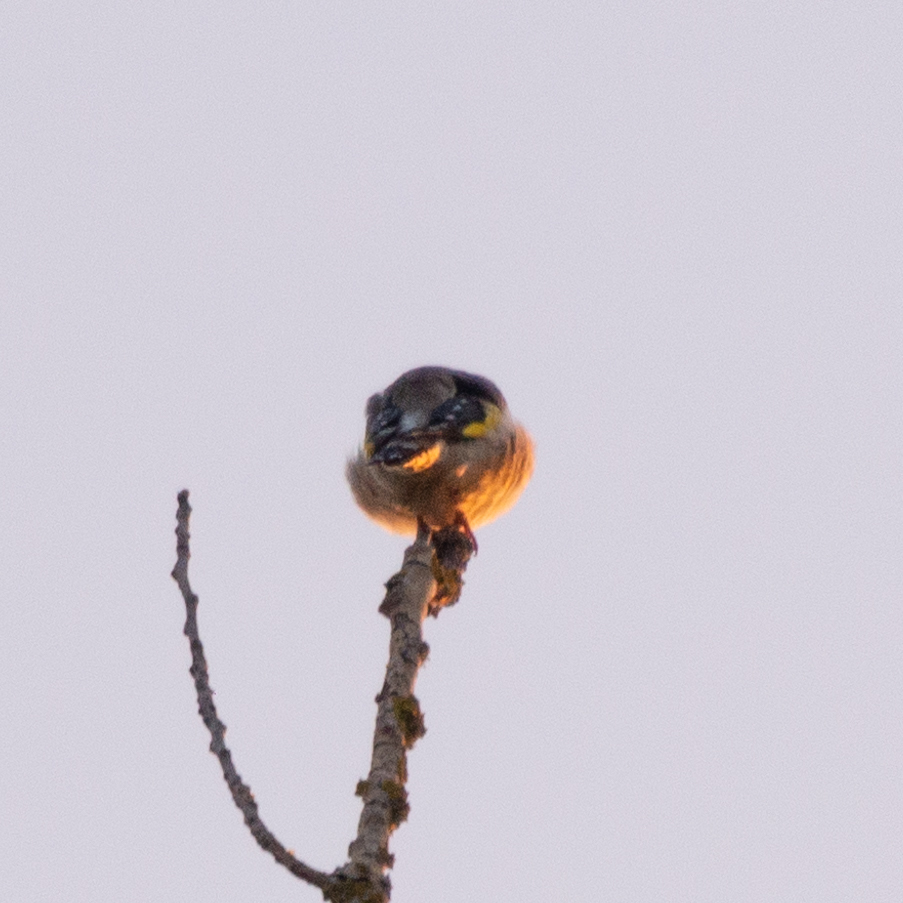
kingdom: Animalia
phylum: Chordata
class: Aves
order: Passeriformes
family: Fringillidae
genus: Carduelis
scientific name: Carduelis carduelis
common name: European goldfinch
